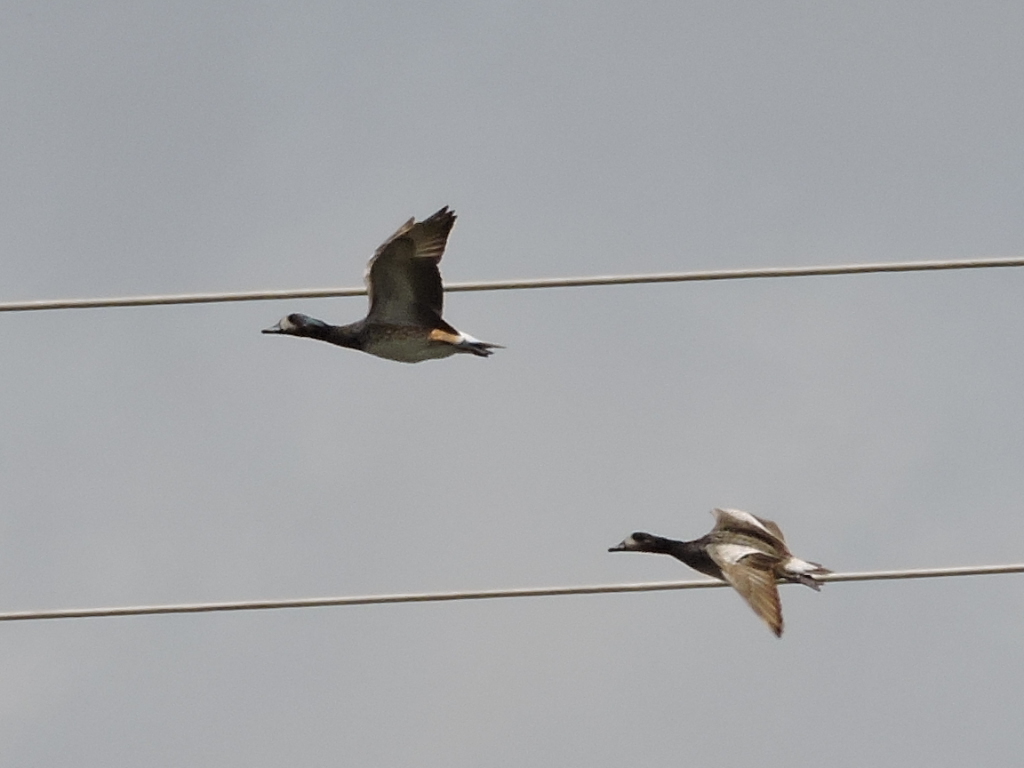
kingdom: Animalia
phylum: Chordata
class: Aves
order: Anseriformes
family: Anatidae
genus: Mareca
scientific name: Mareca sibilatrix
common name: Chiloe wigeon
